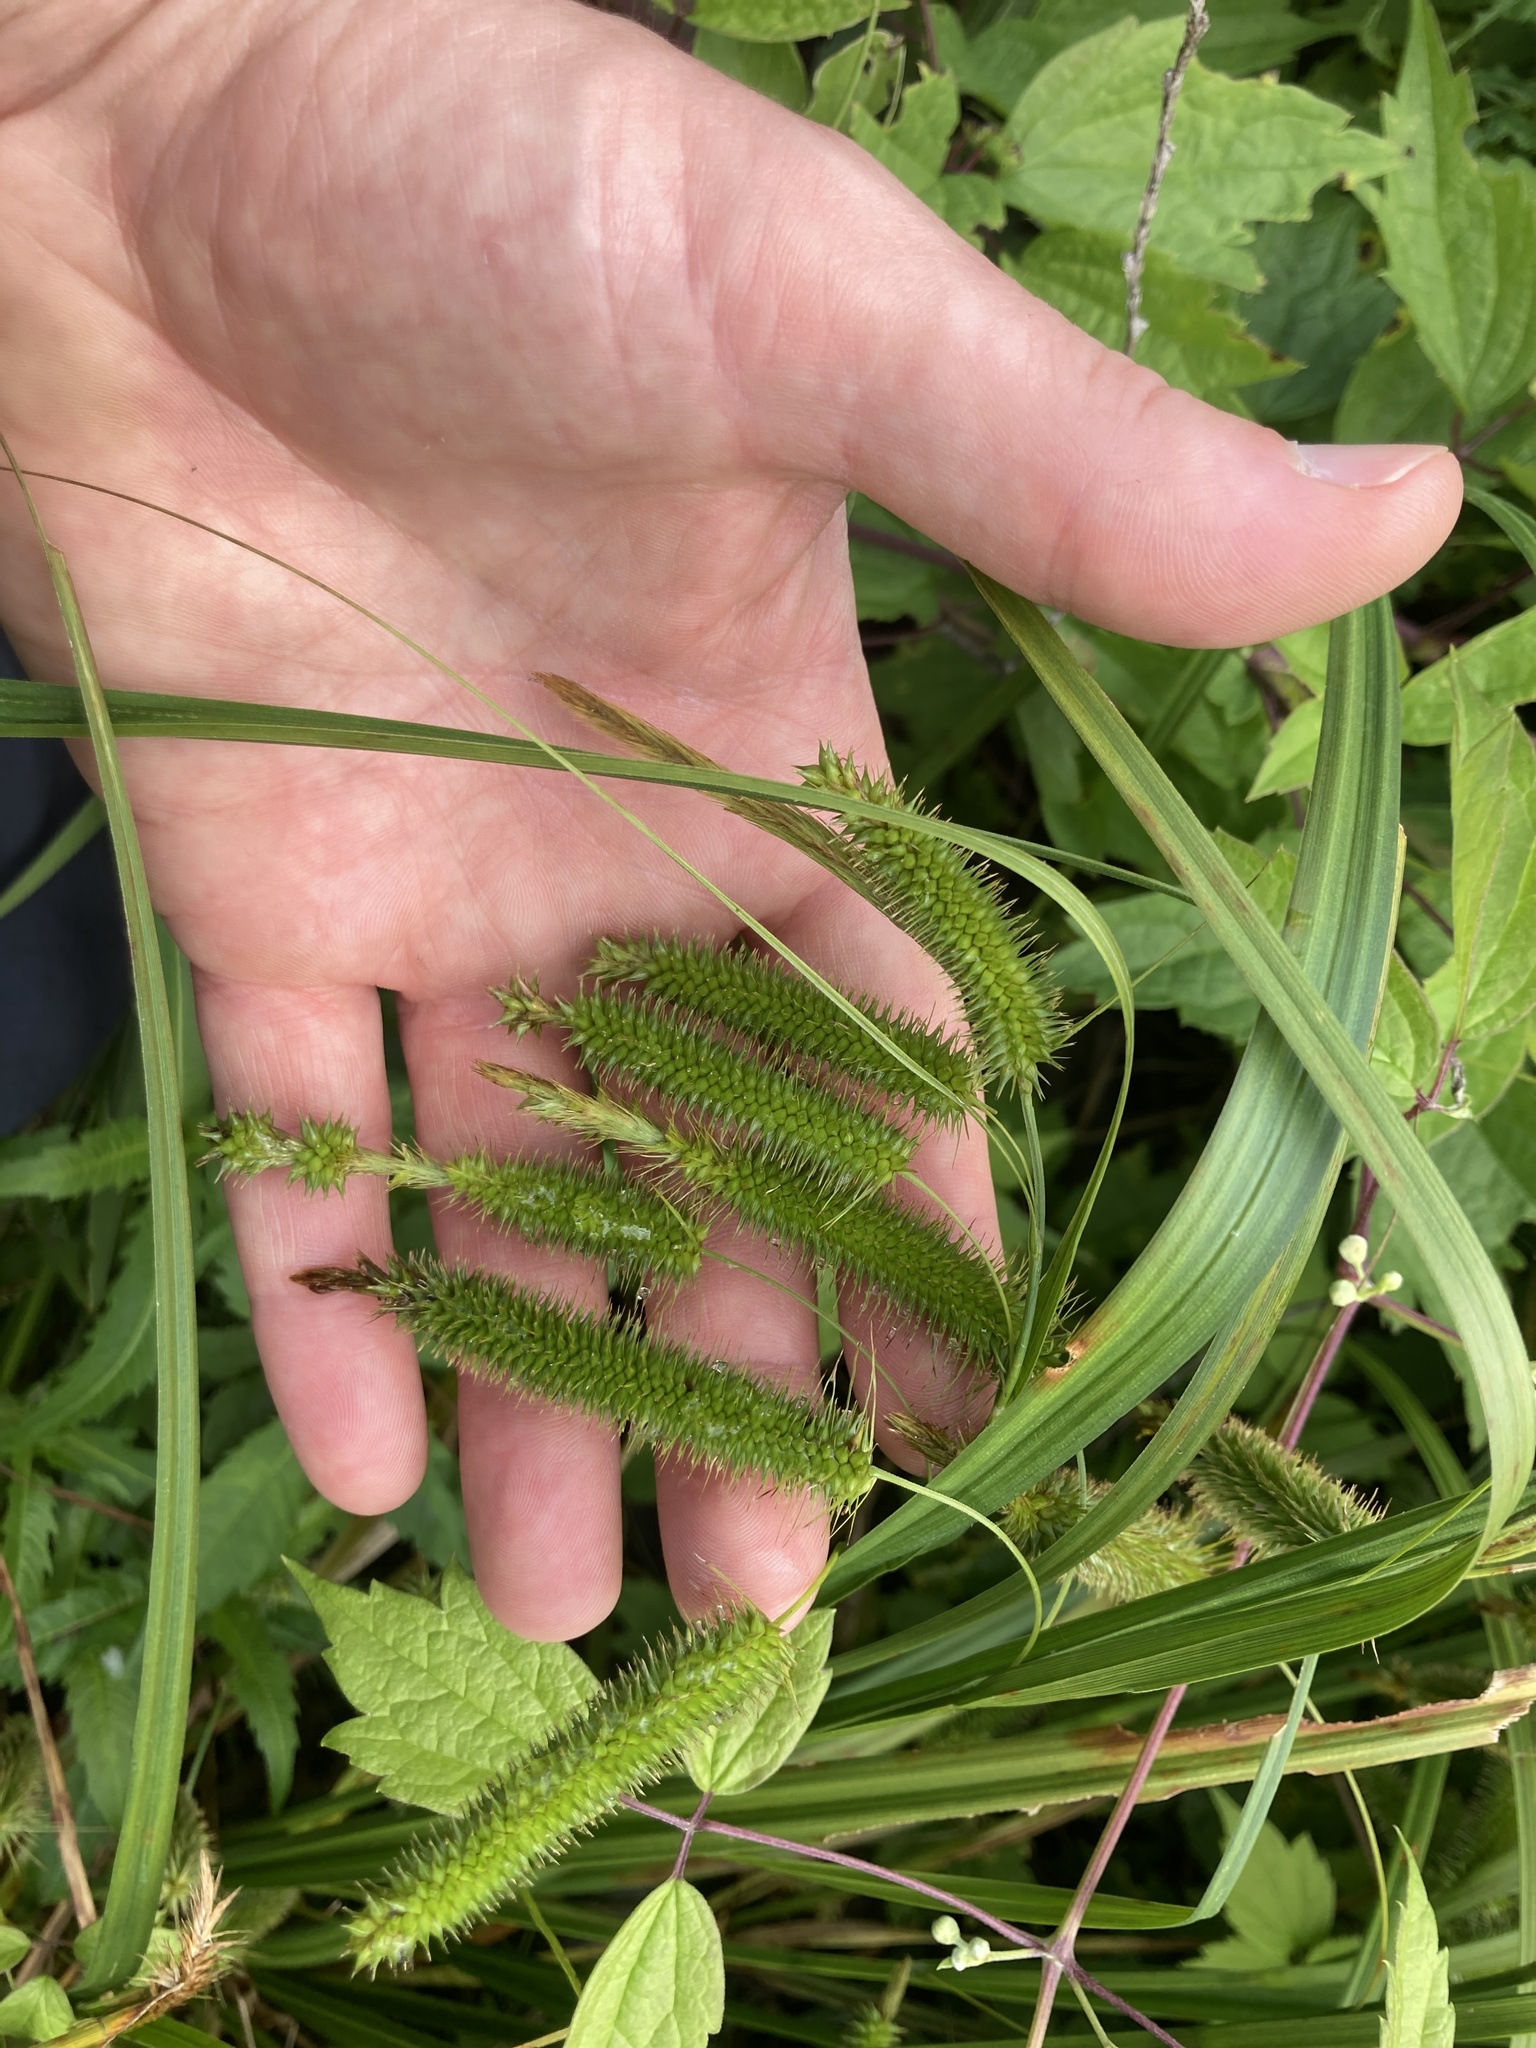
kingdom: Plantae
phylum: Tracheophyta
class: Liliopsida
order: Poales
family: Cyperaceae
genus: Carex
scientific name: Carex pseudocyperus
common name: Cyperus sedge
